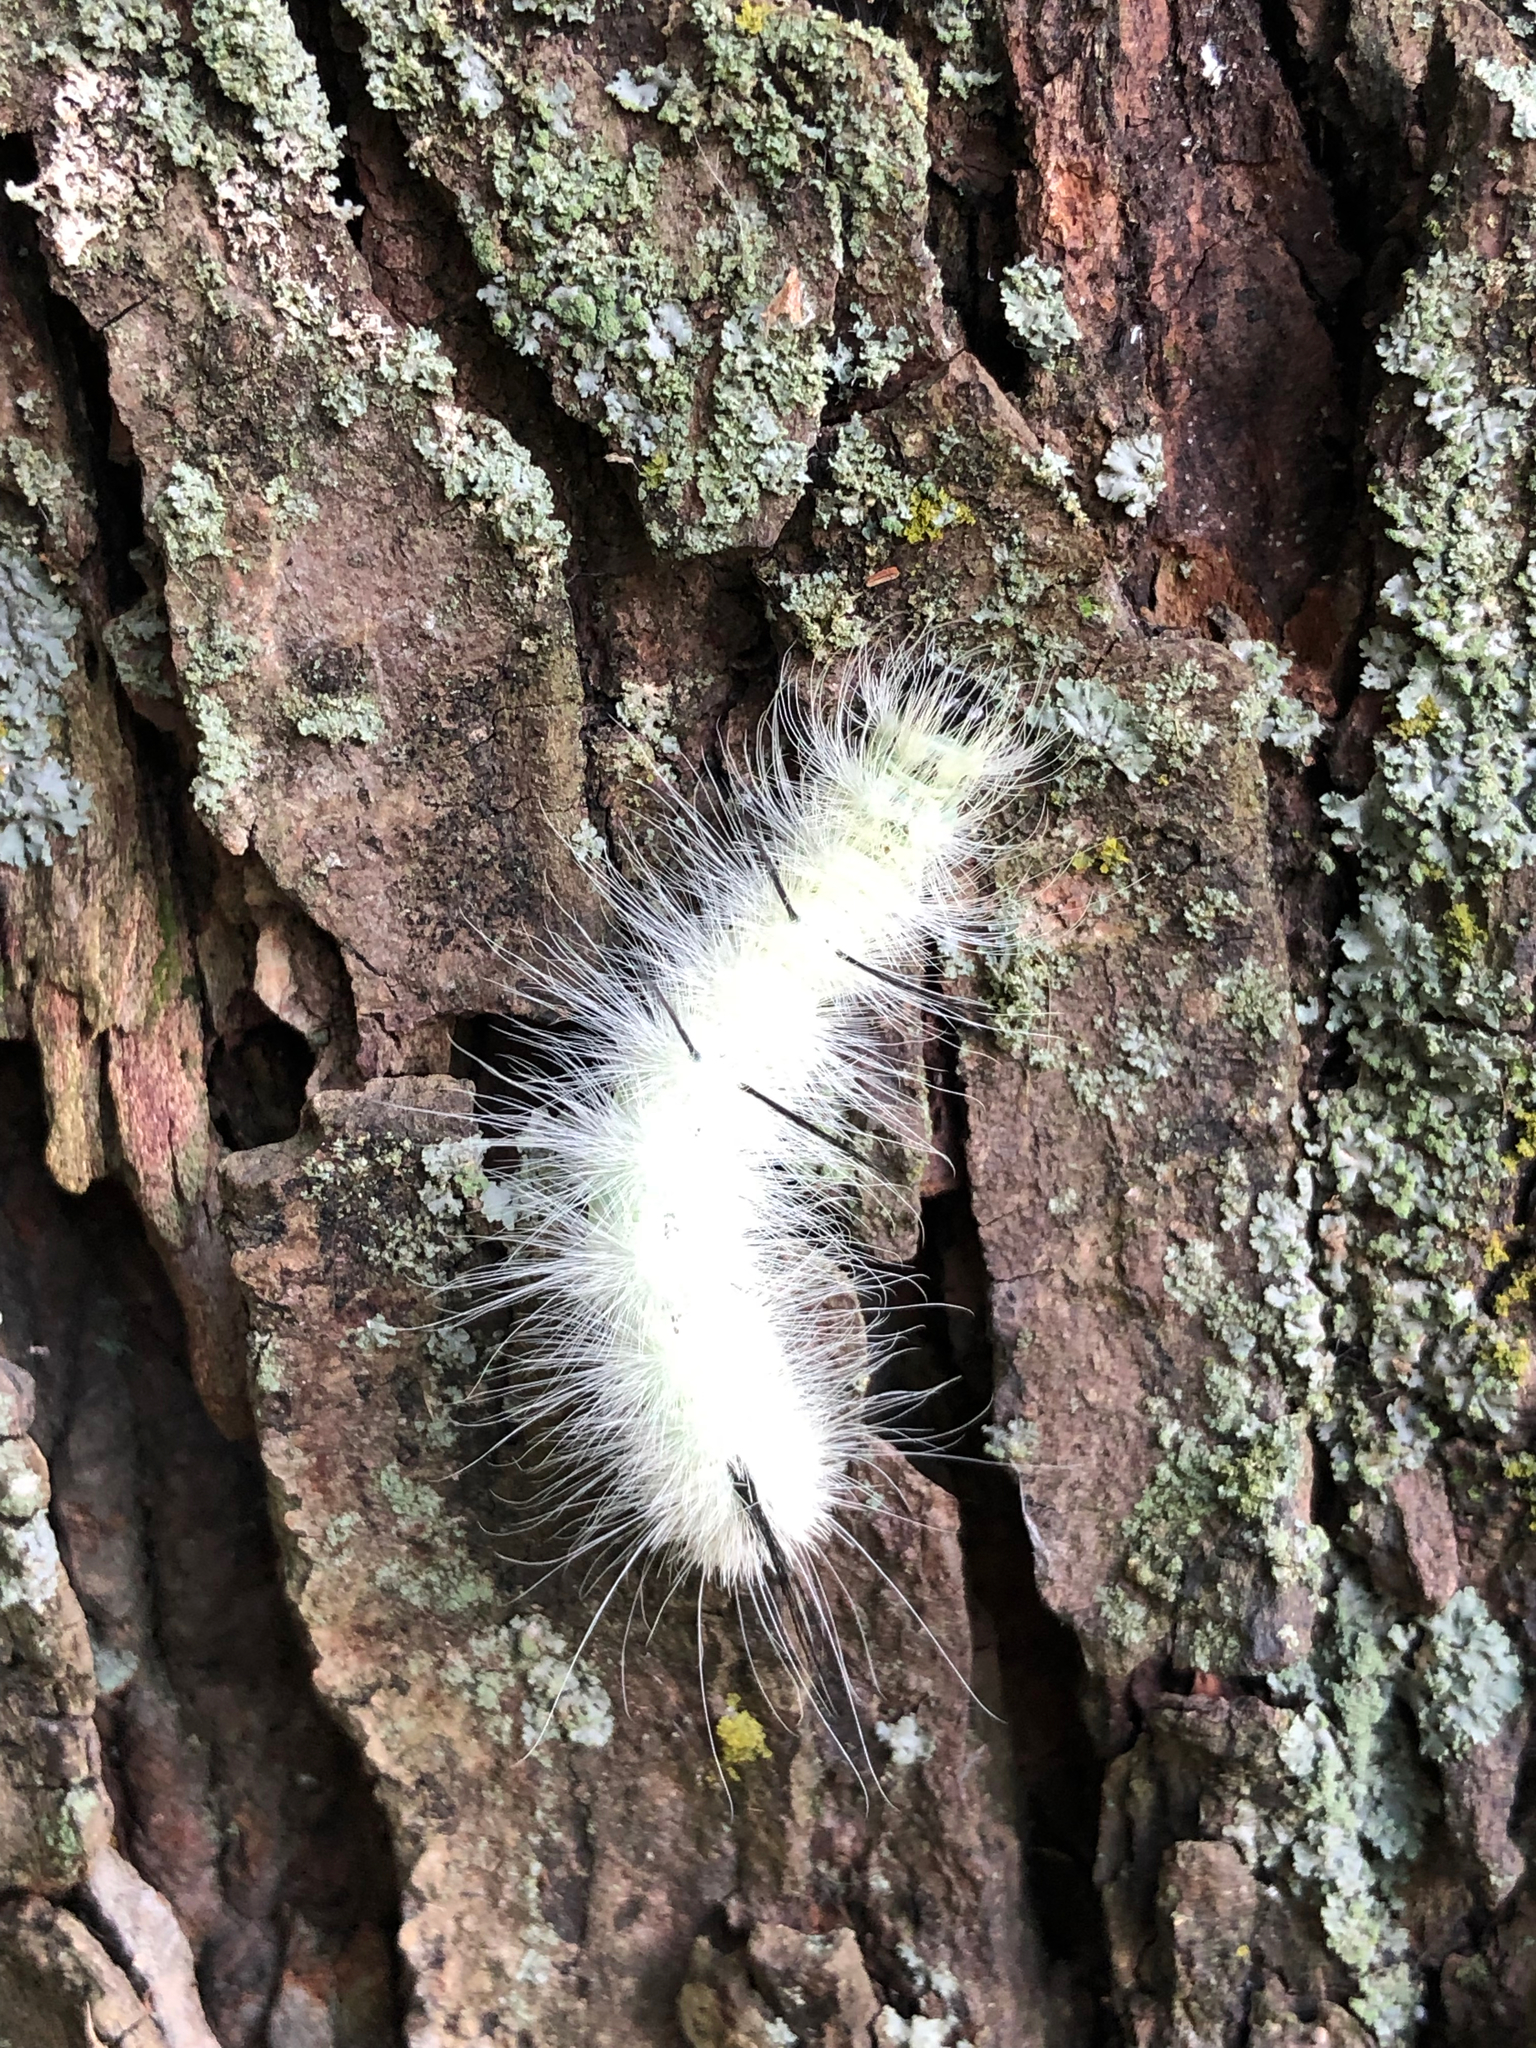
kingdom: Animalia
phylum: Arthropoda
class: Insecta
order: Lepidoptera
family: Noctuidae
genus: Acronicta
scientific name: Acronicta americana
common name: American dagger
